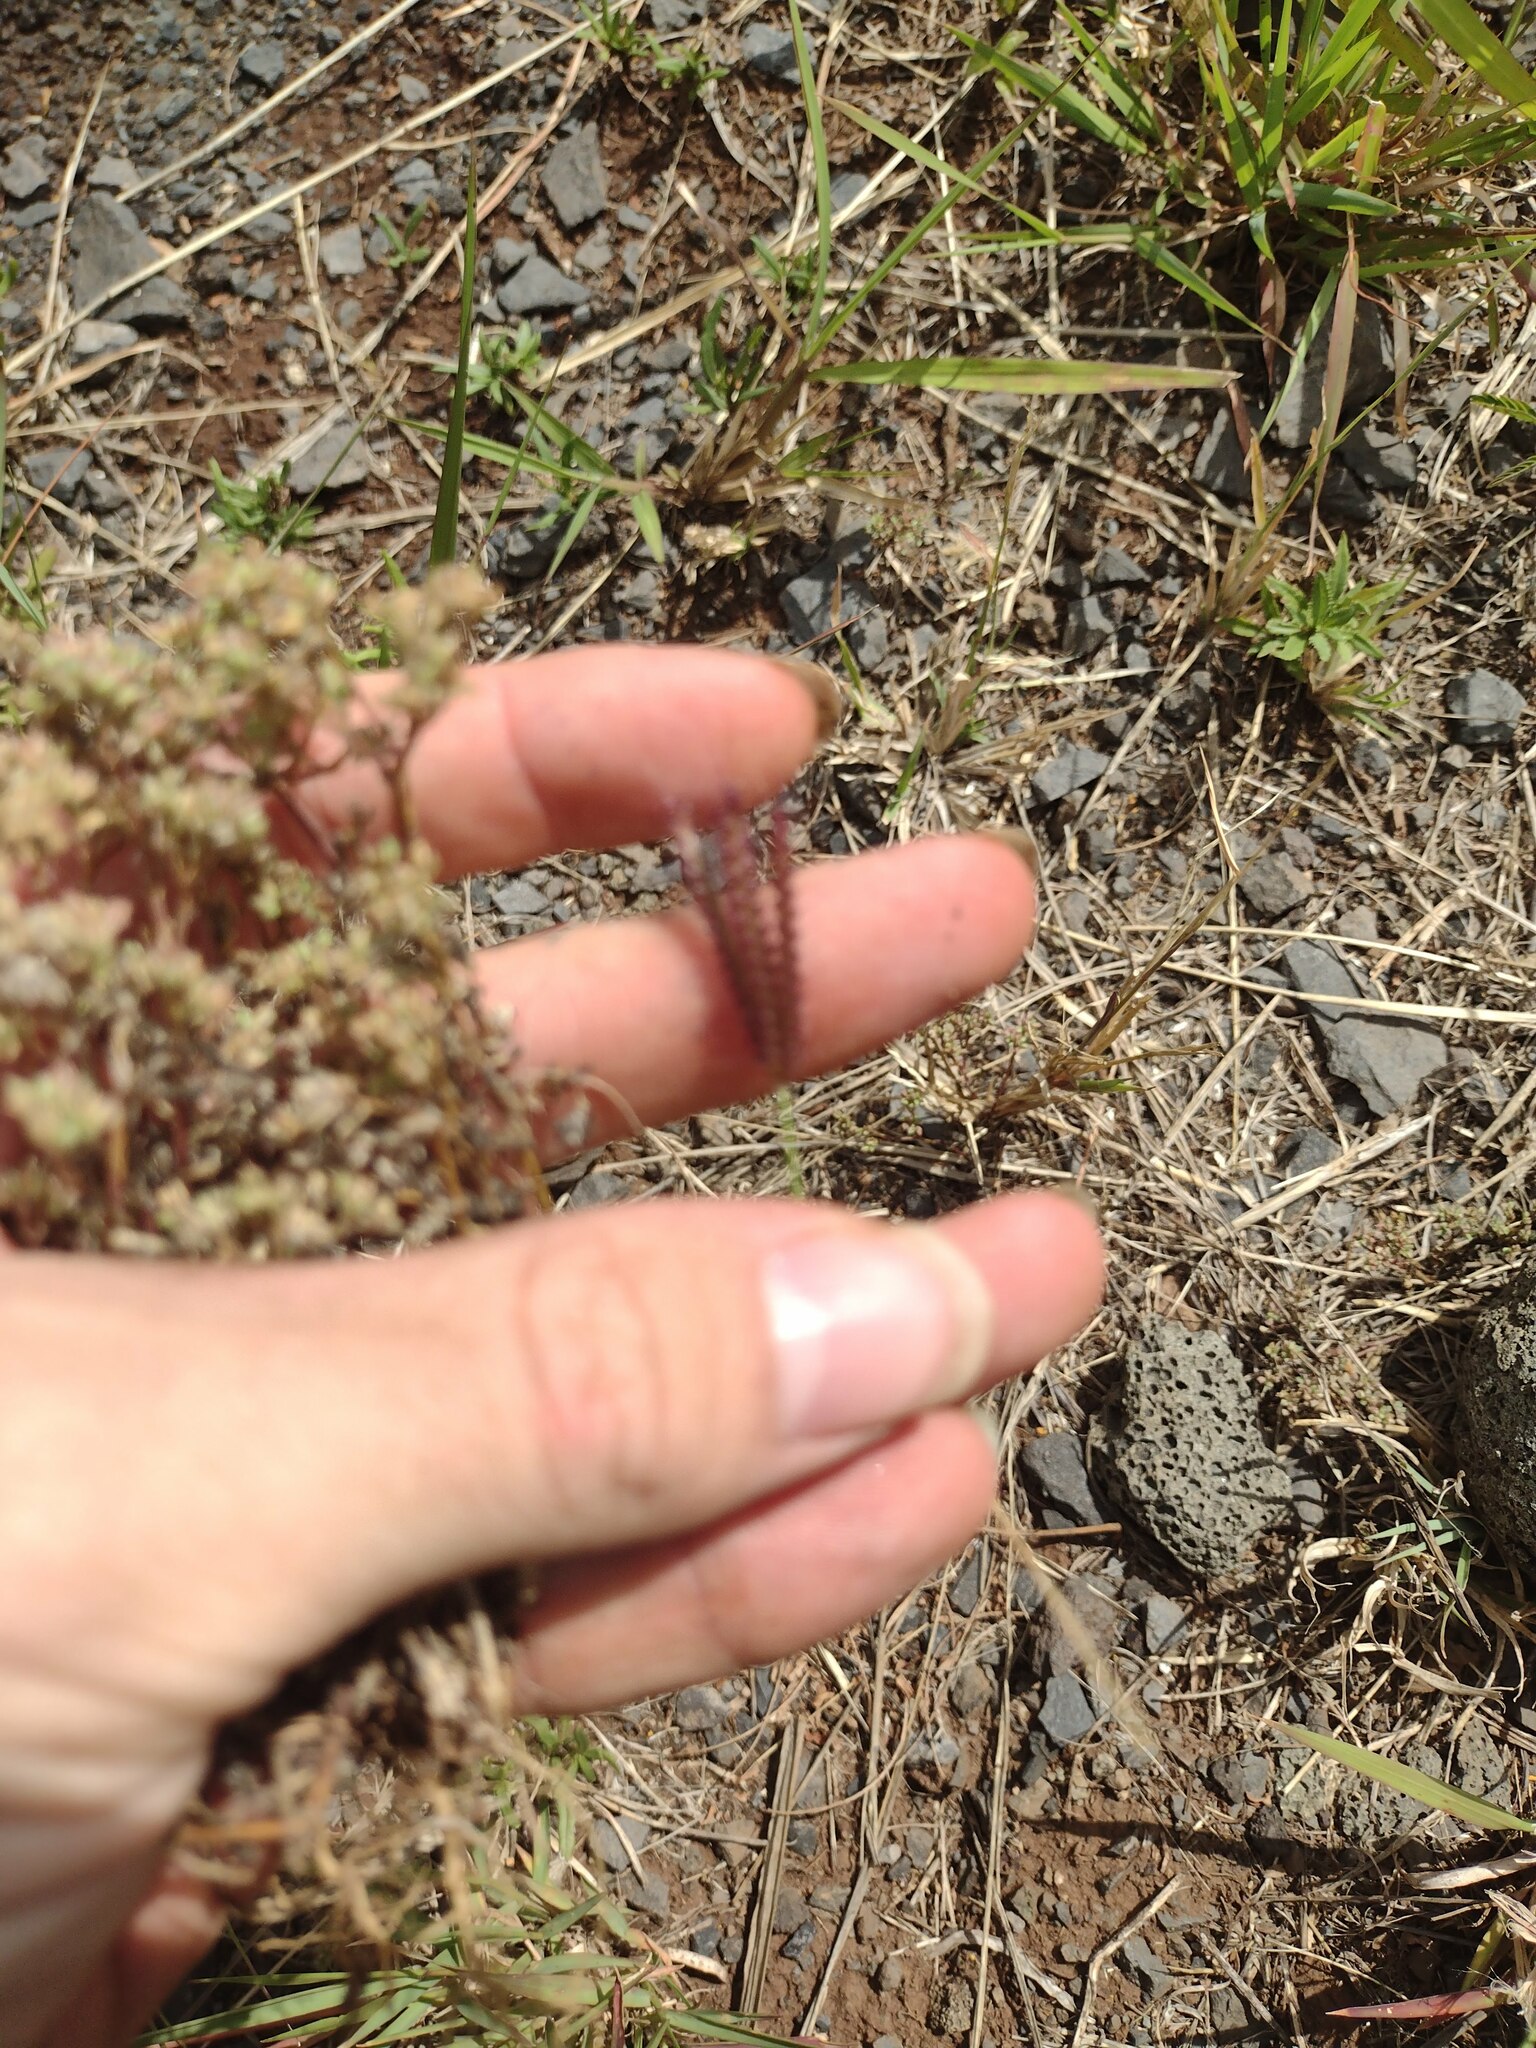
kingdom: Plantae
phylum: Tracheophyta
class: Liliopsida
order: Poales
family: Poaceae
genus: Chloris
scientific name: Chloris barbata
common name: Swollen fingergrass
